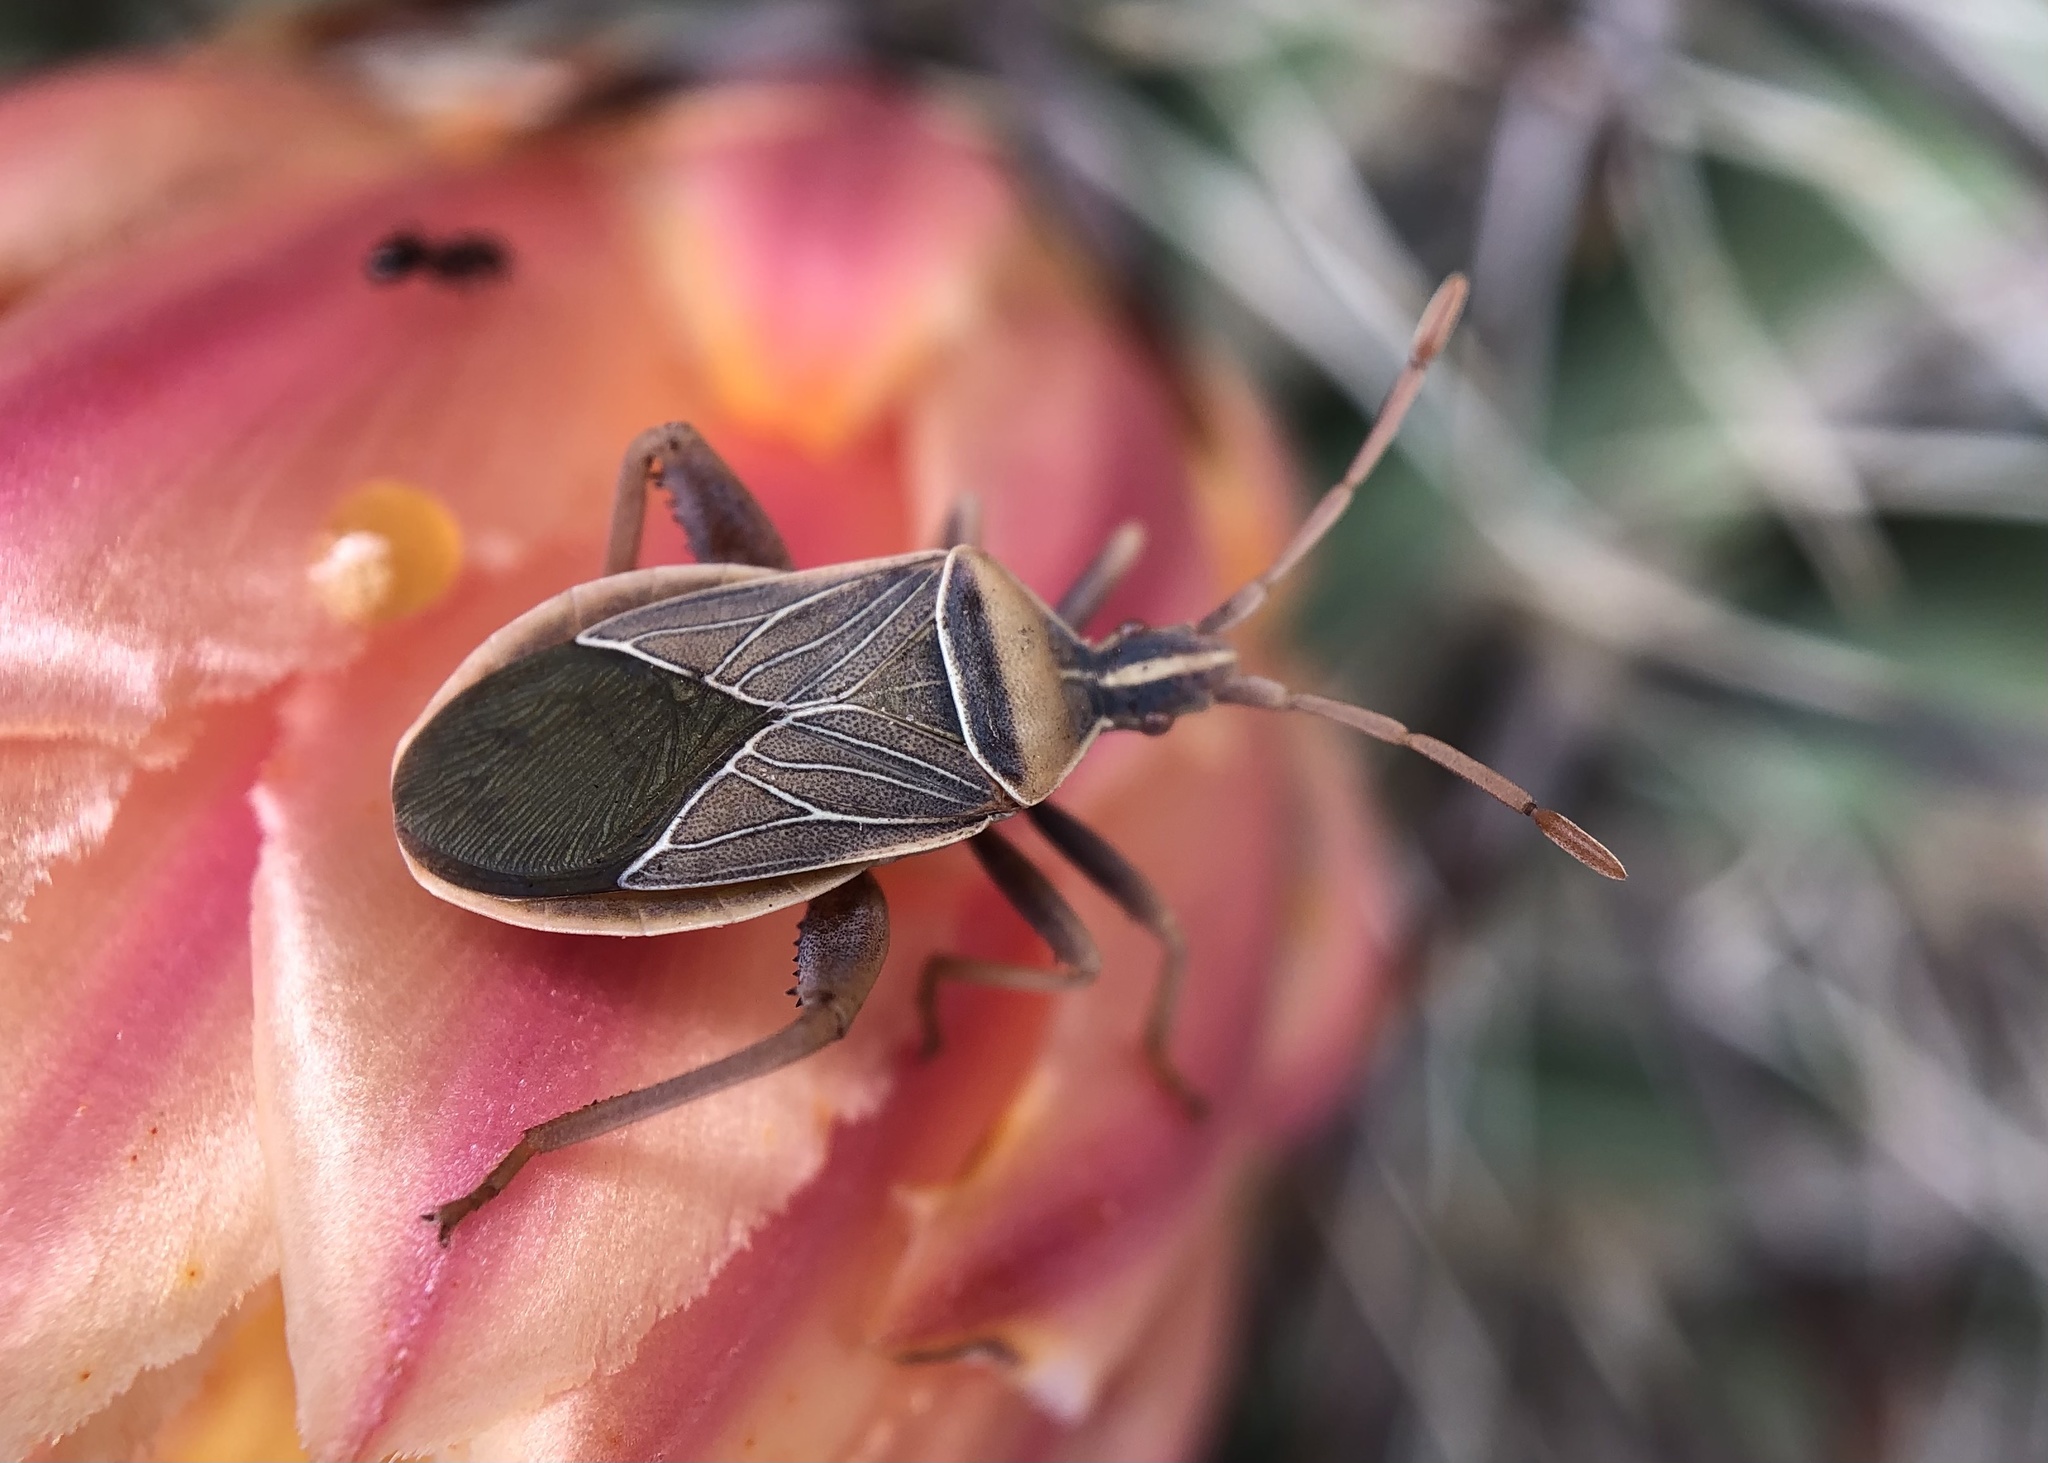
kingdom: Animalia
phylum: Arthropoda
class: Insecta
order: Hemiptera
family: Coreidae
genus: Chelinidea
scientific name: Chelinidea vittiger
